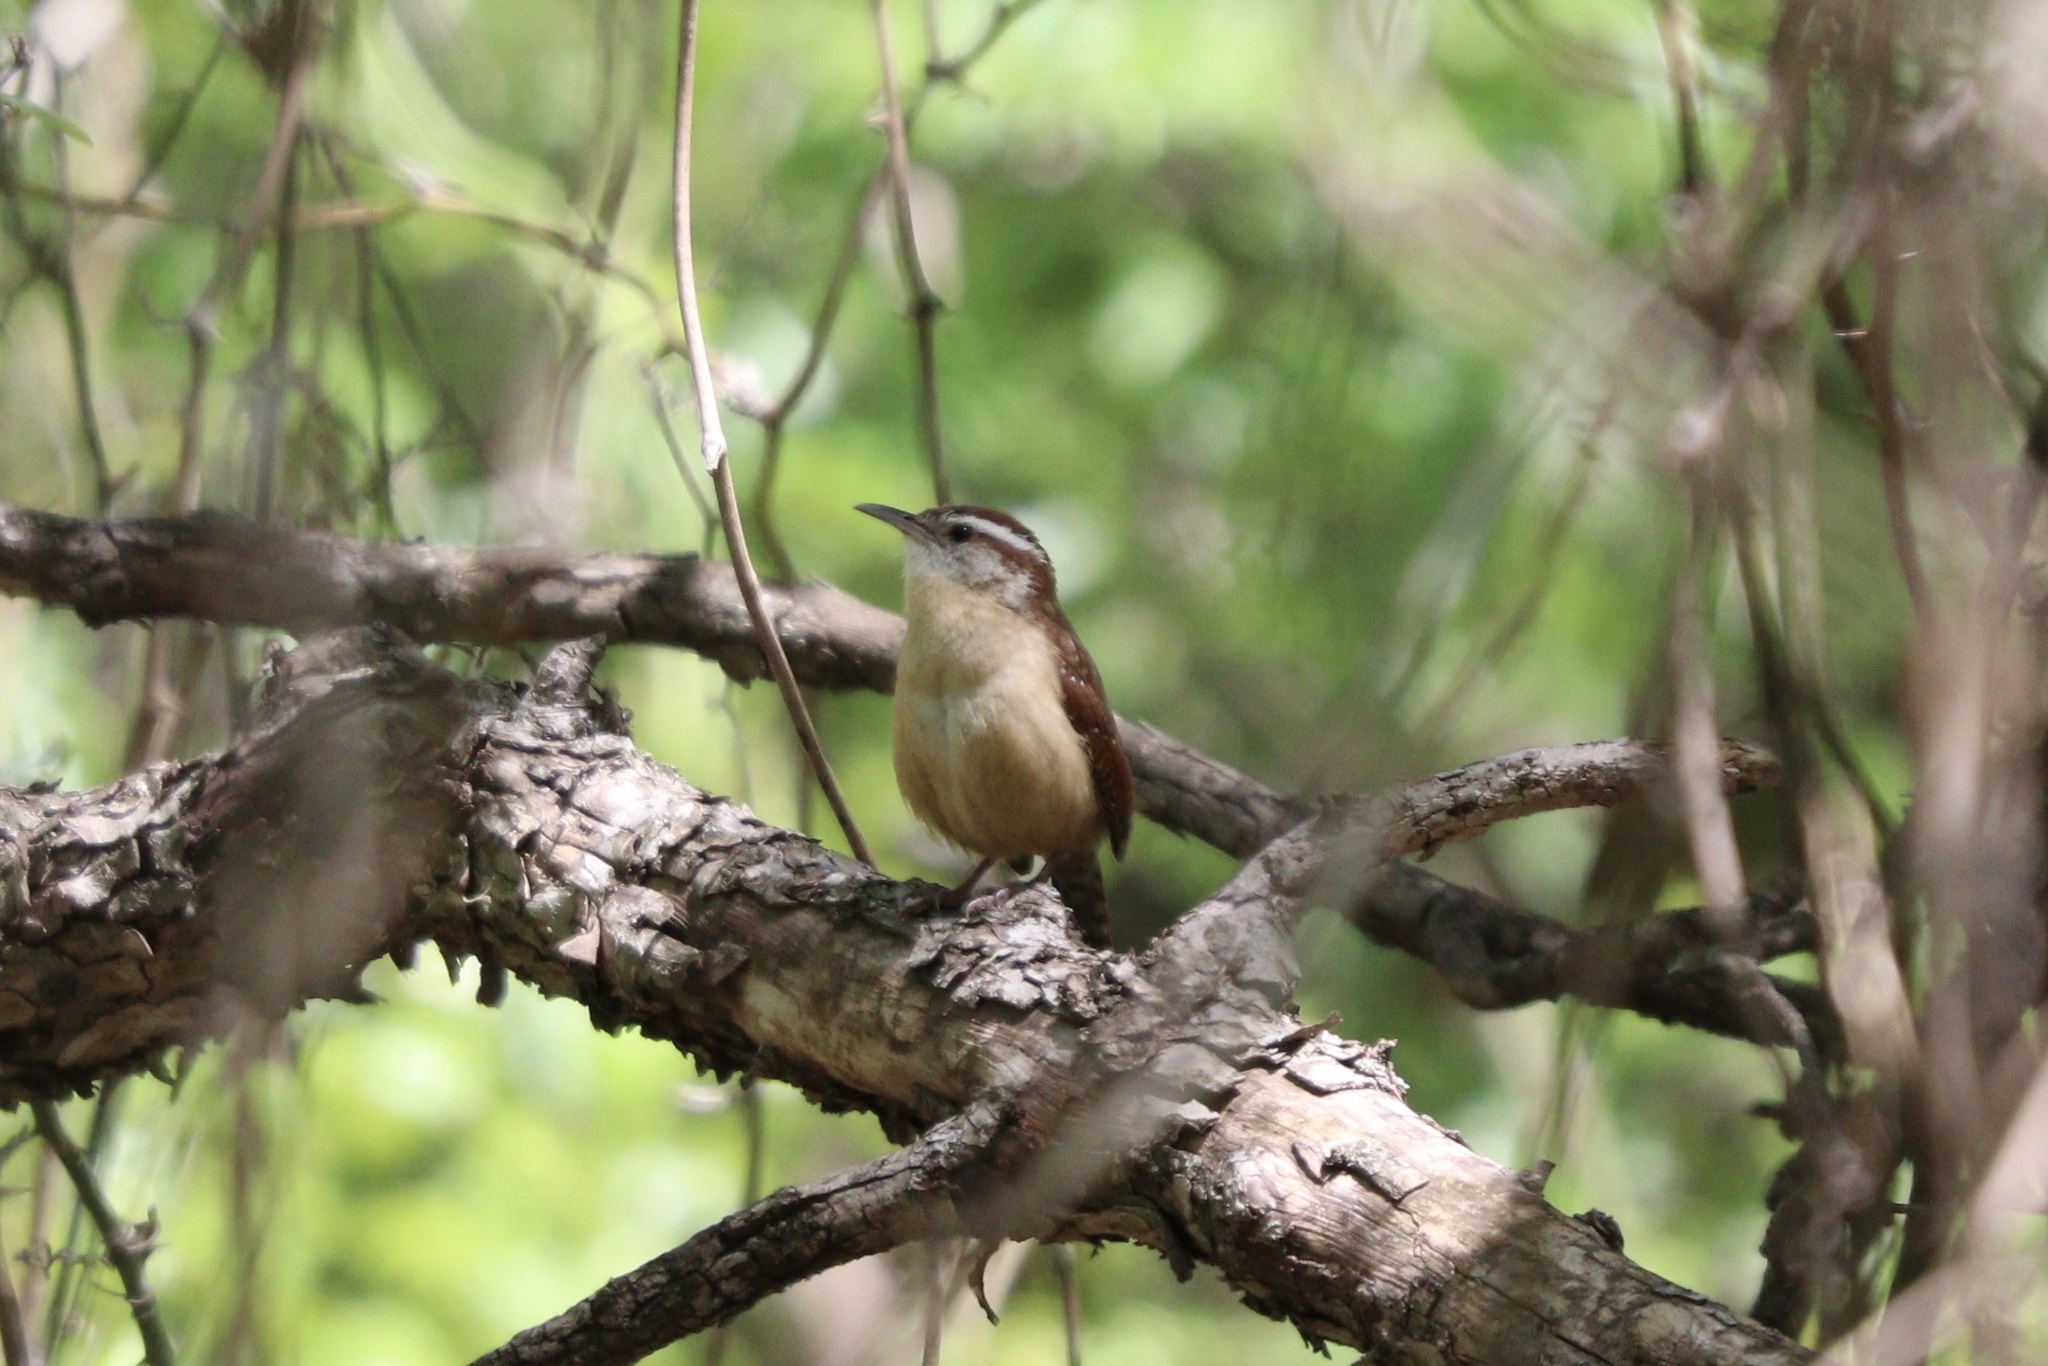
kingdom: Animalia
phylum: Chordata
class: Aves
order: Passeriformes
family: Troglodytidae
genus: Thryothorus
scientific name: Thryothorus ludovicianus
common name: Carolina wren
